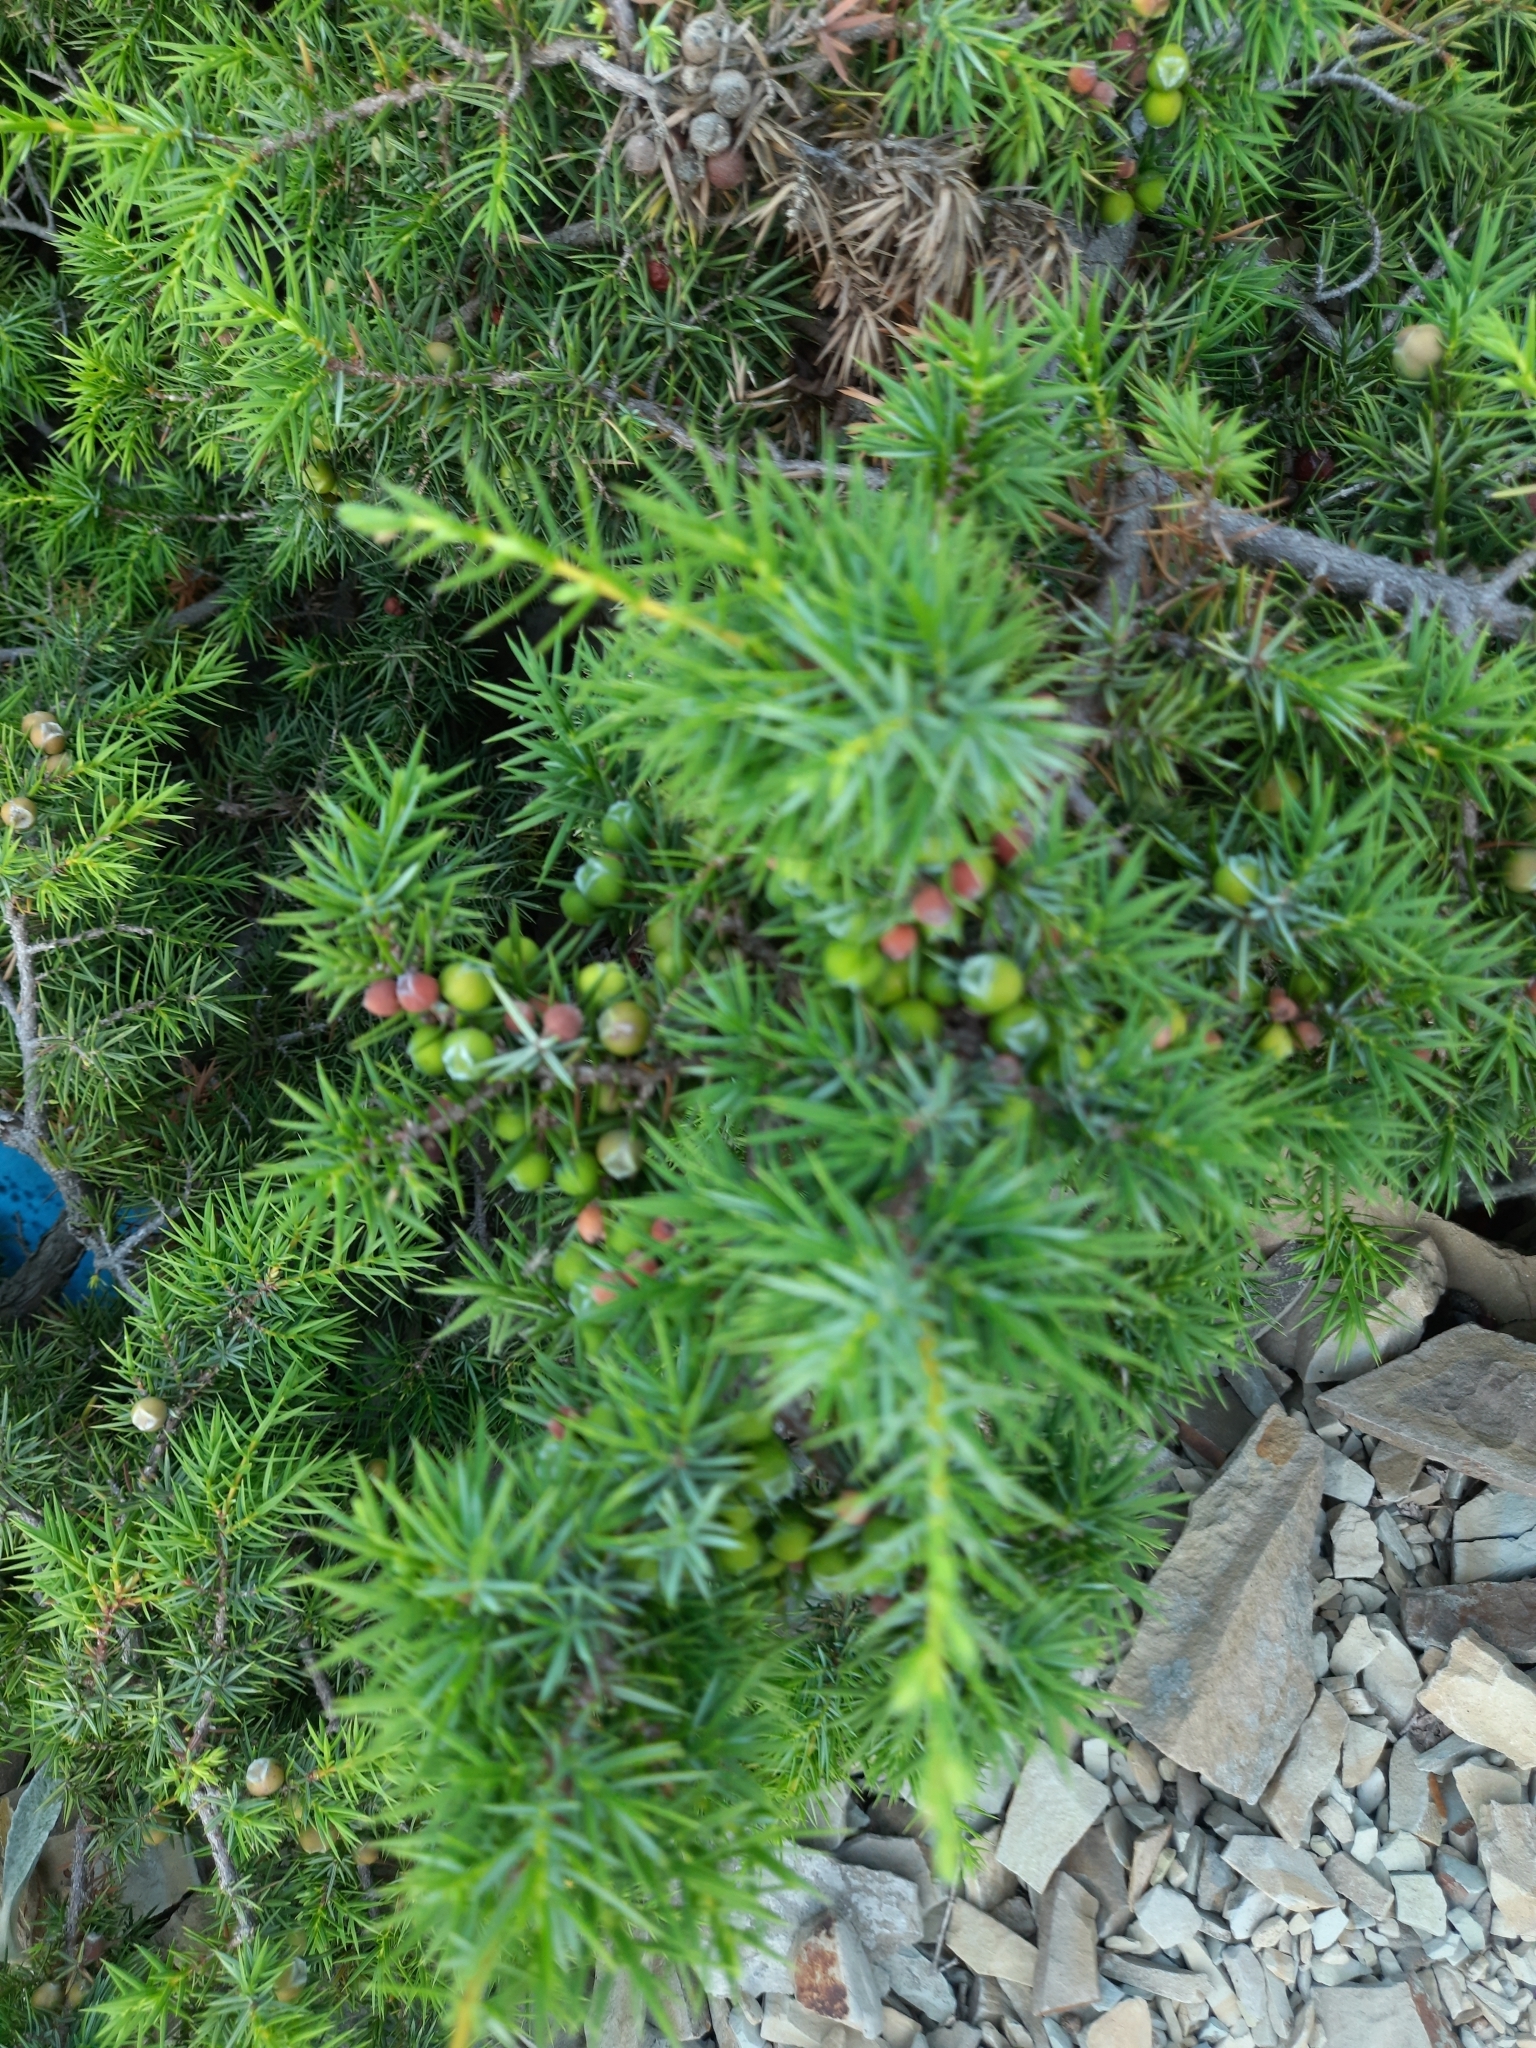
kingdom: Plantae
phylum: Tracheophyta
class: Pinopsida
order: Pinales
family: Cupressaceae
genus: Juniperus
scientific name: Juniperus oxycedrus
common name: Prickly juniper
